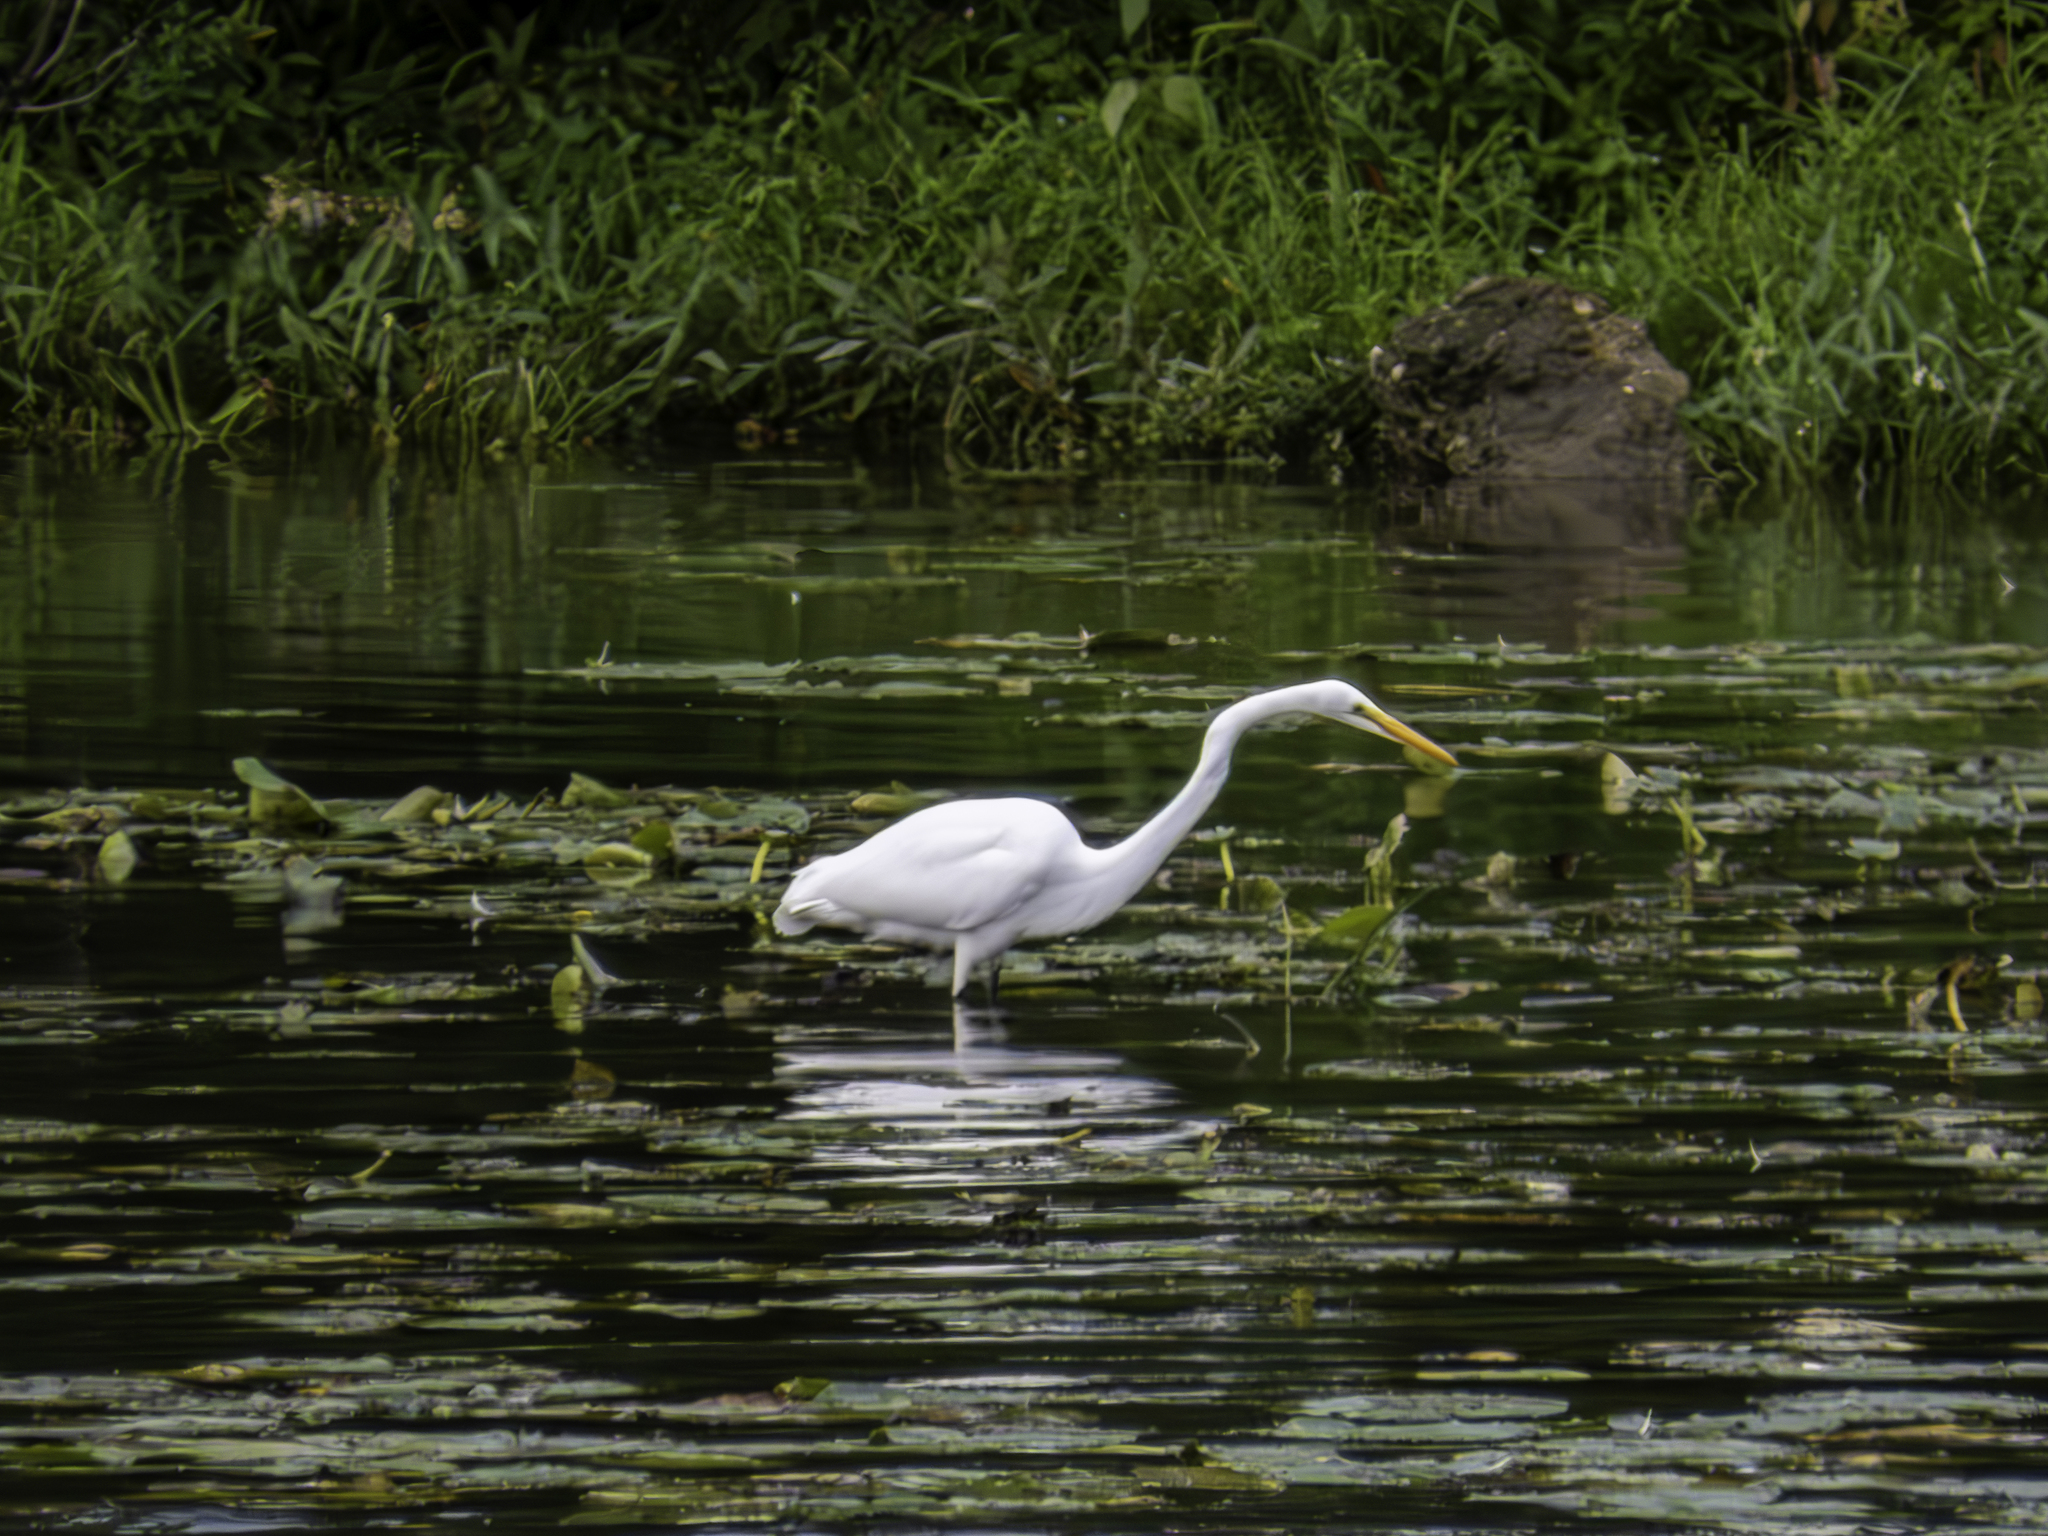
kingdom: Animalia
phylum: Chordata
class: Aves
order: Pelecaniformes
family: Ardeidae
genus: Ardea
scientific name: Ardea alba
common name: Great egret
